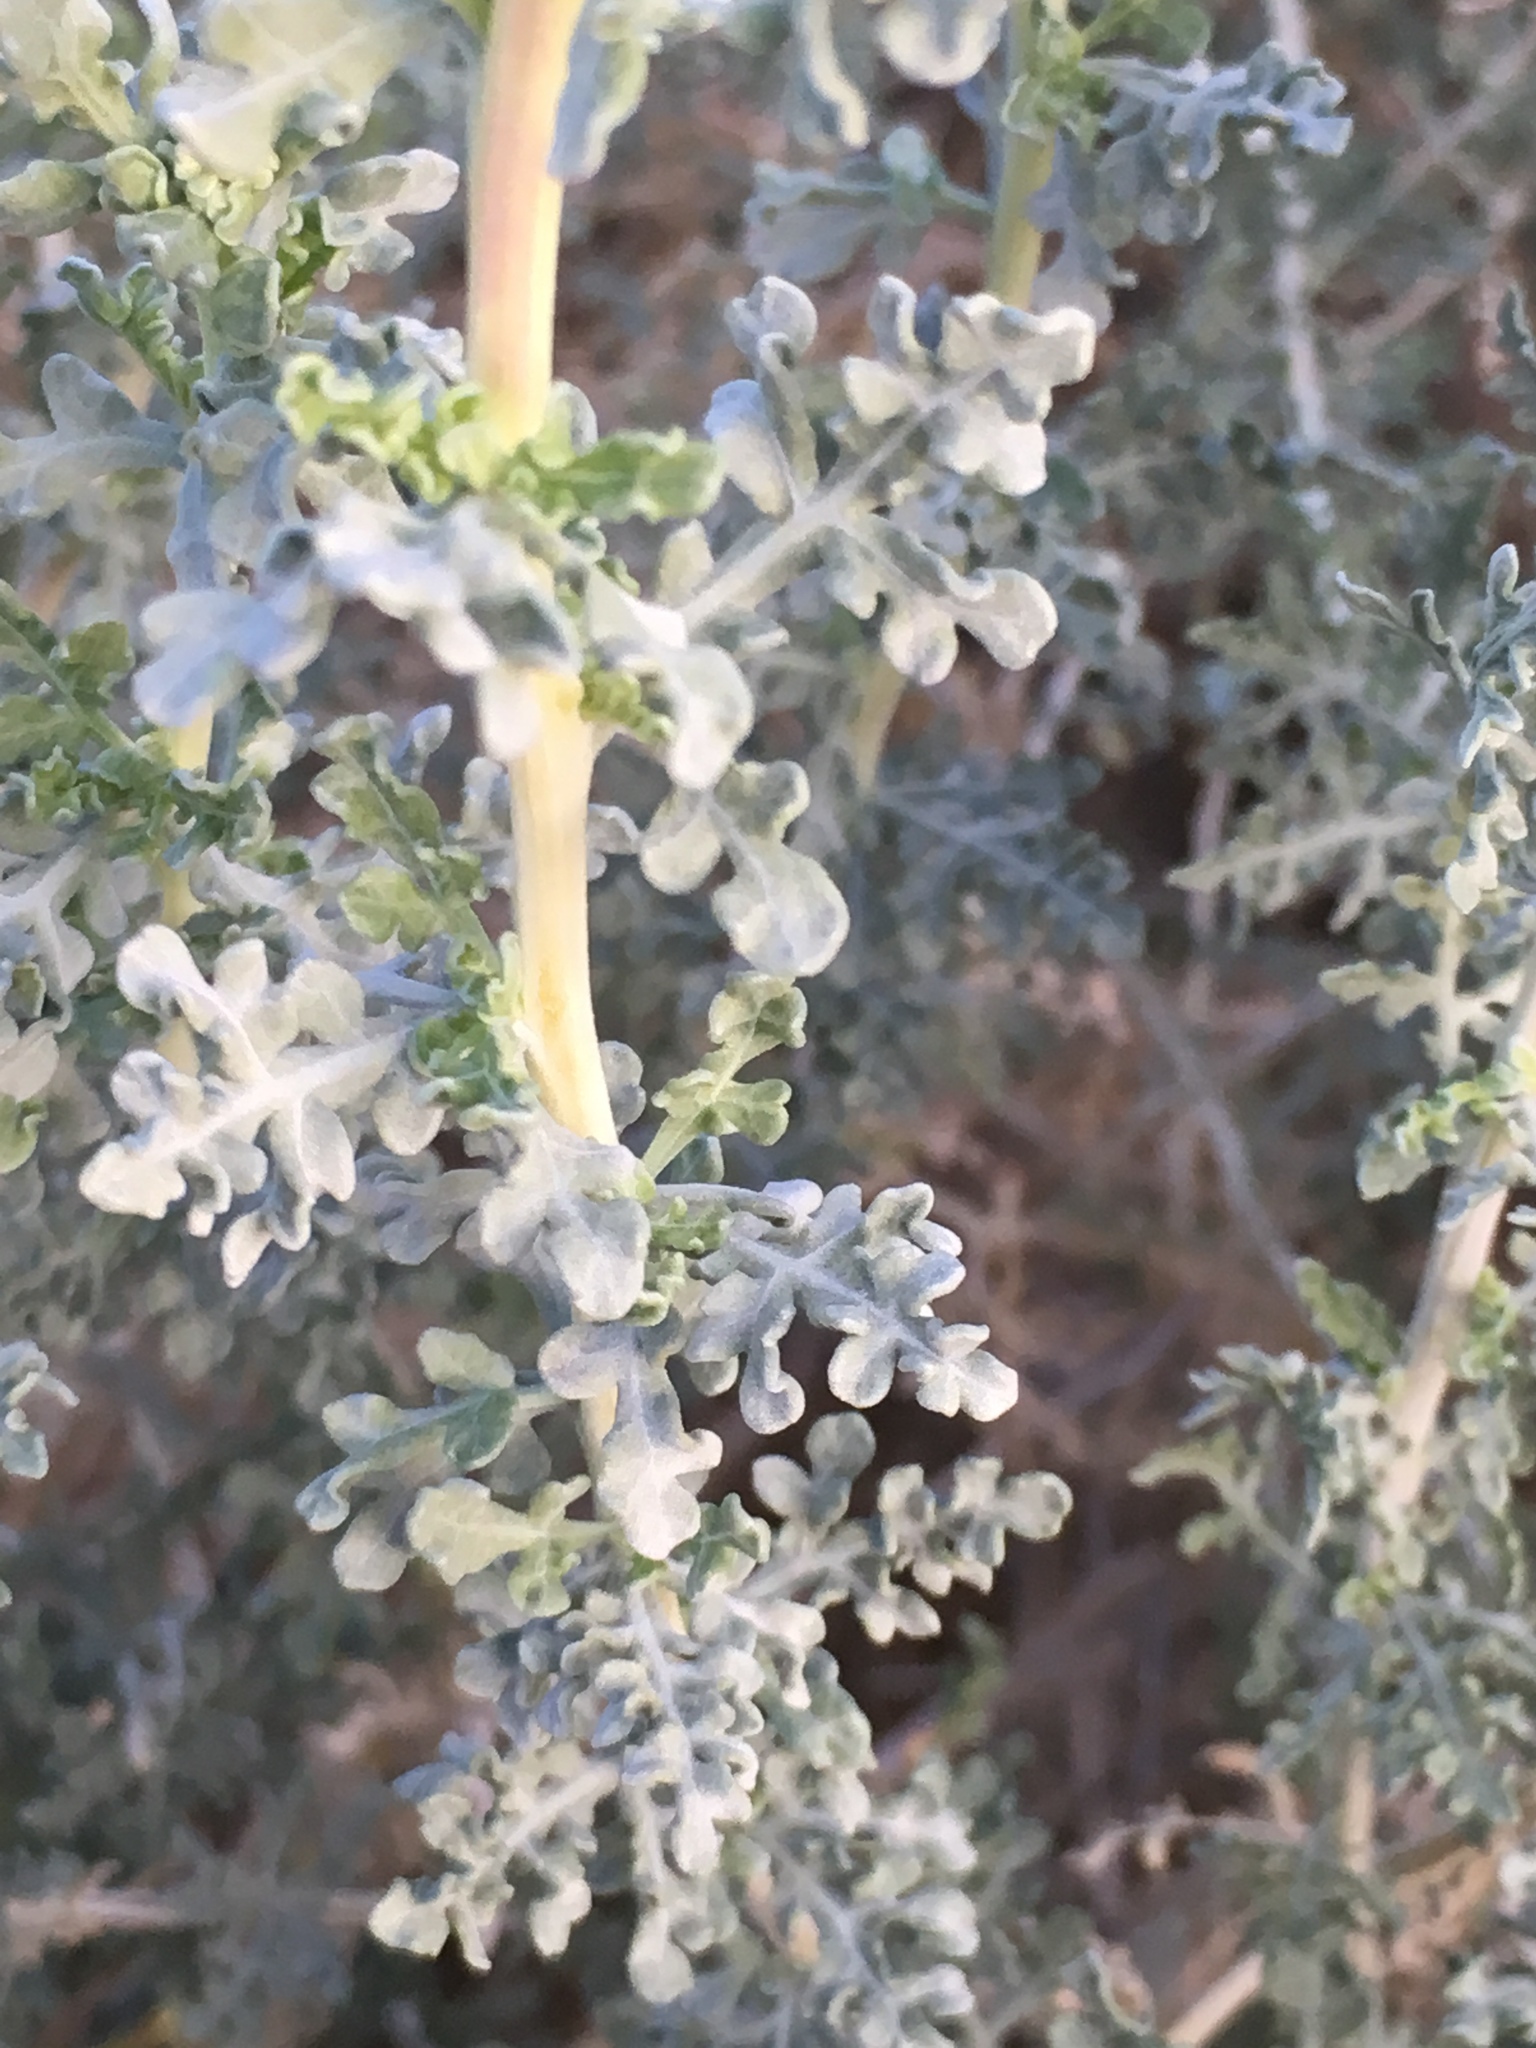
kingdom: Plantae
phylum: Tracheophyta
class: Magnoliopsida
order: Asterales
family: Asteraceae
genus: Ambrosia
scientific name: Ambrosia dumosa
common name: Bur-sage
